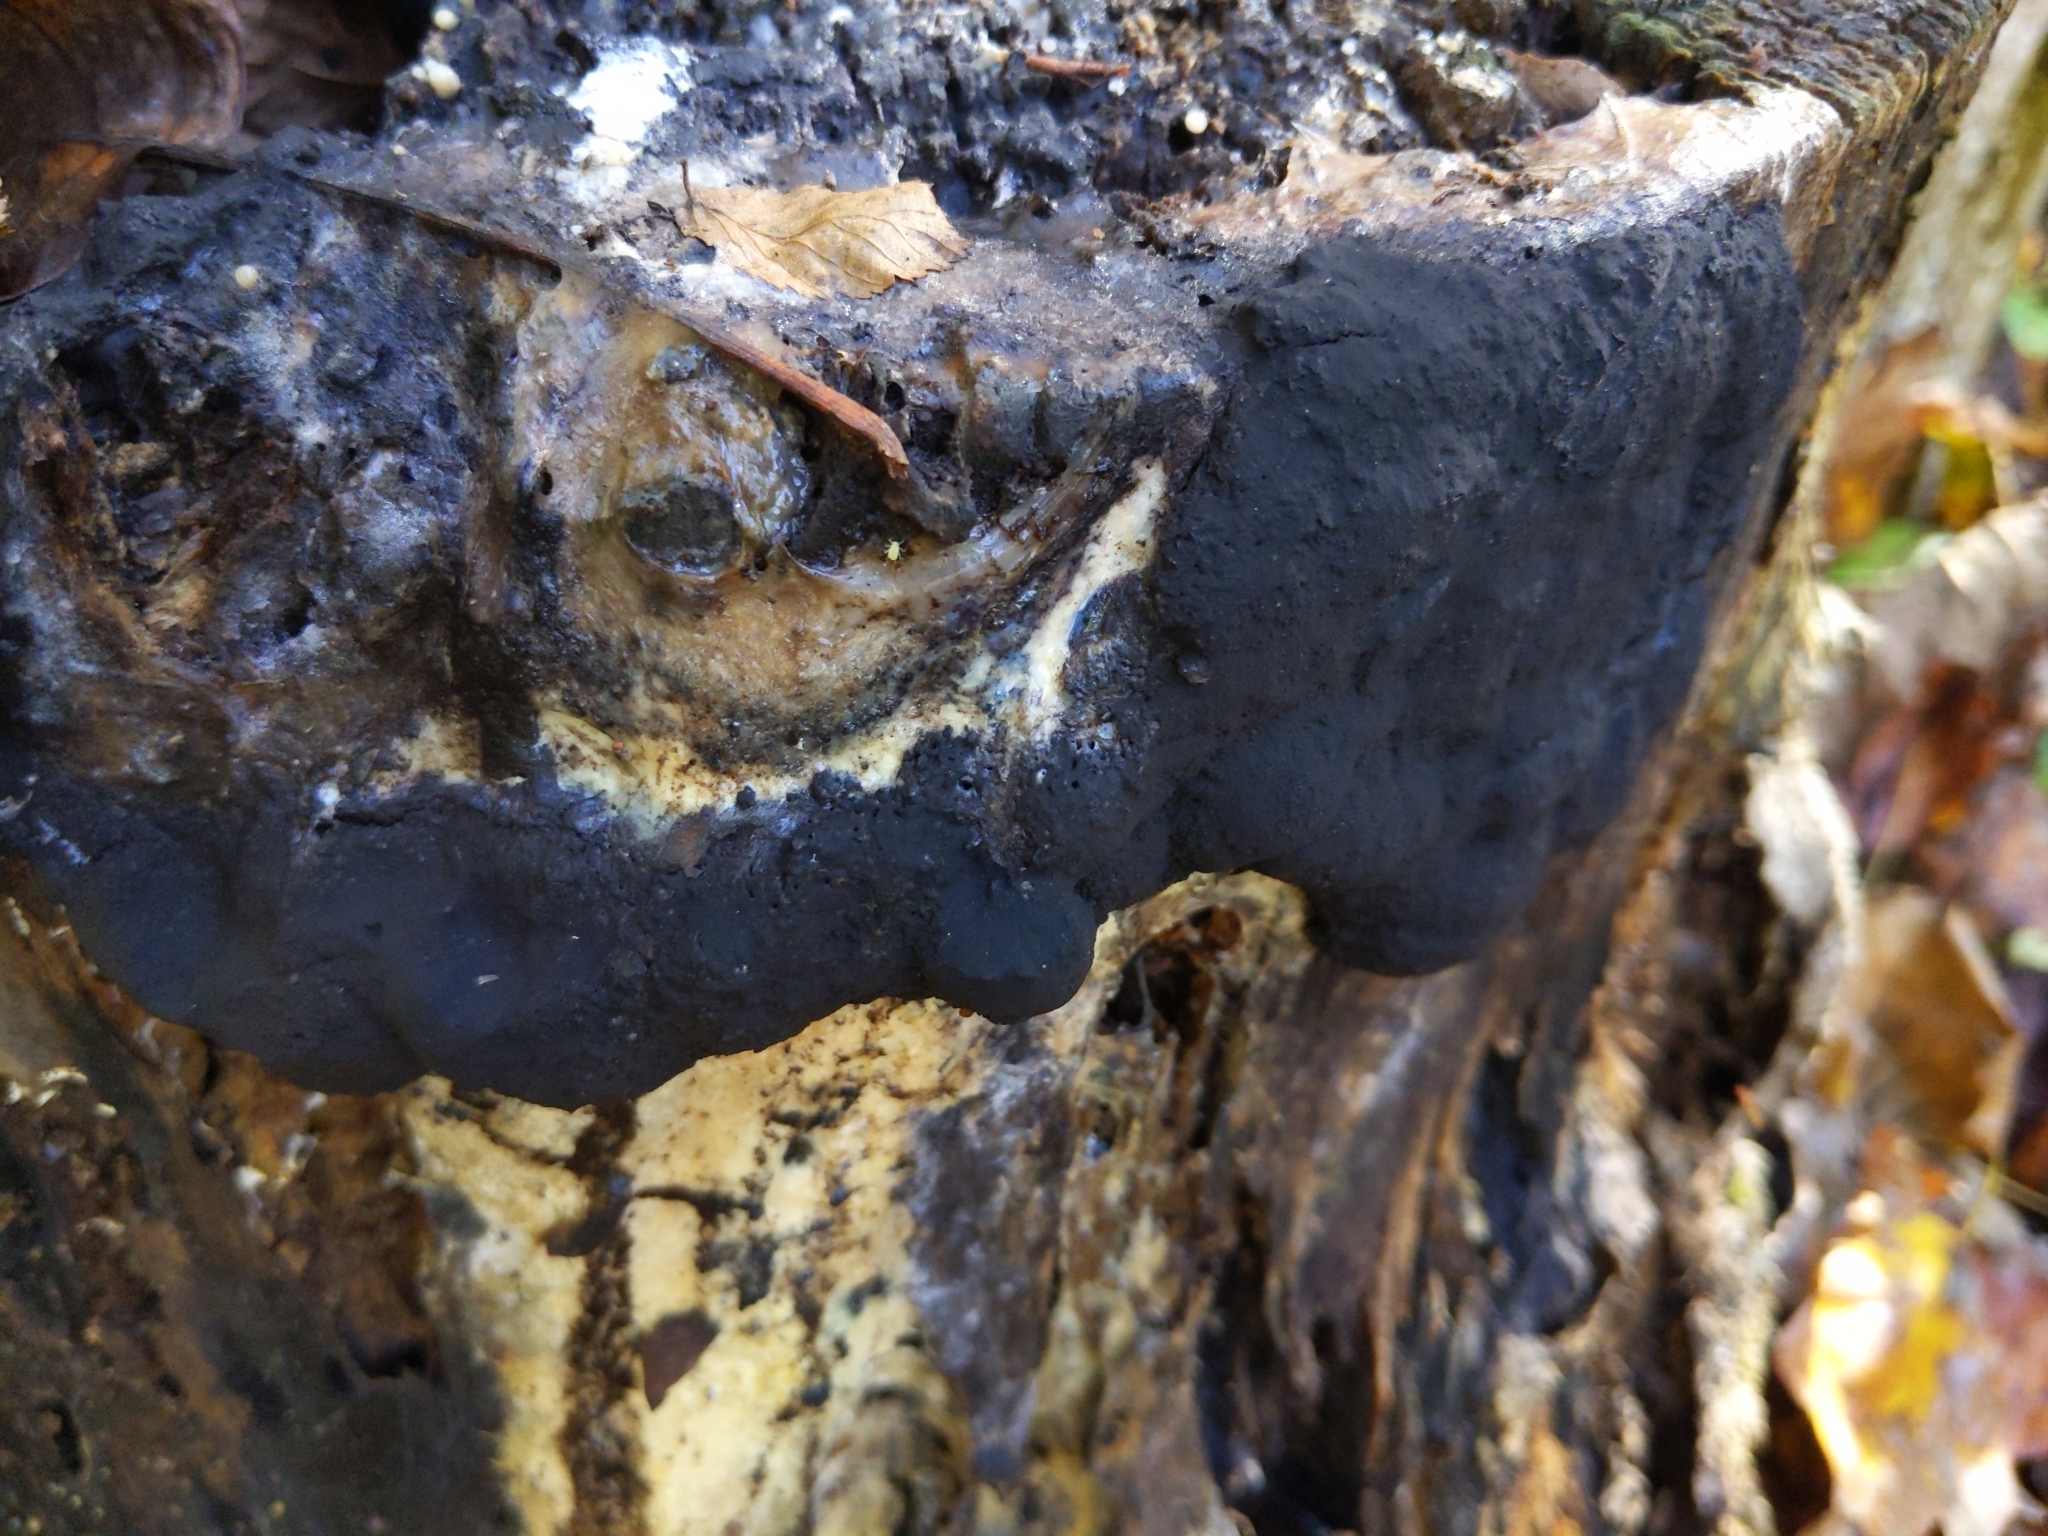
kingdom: Protozoa
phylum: Mycetozoa
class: Myxomycetes
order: Stemonitidales
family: Stemonitidaceae
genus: Brefeldia
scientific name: Brefeldia maxima
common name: Tapioca slime mold
